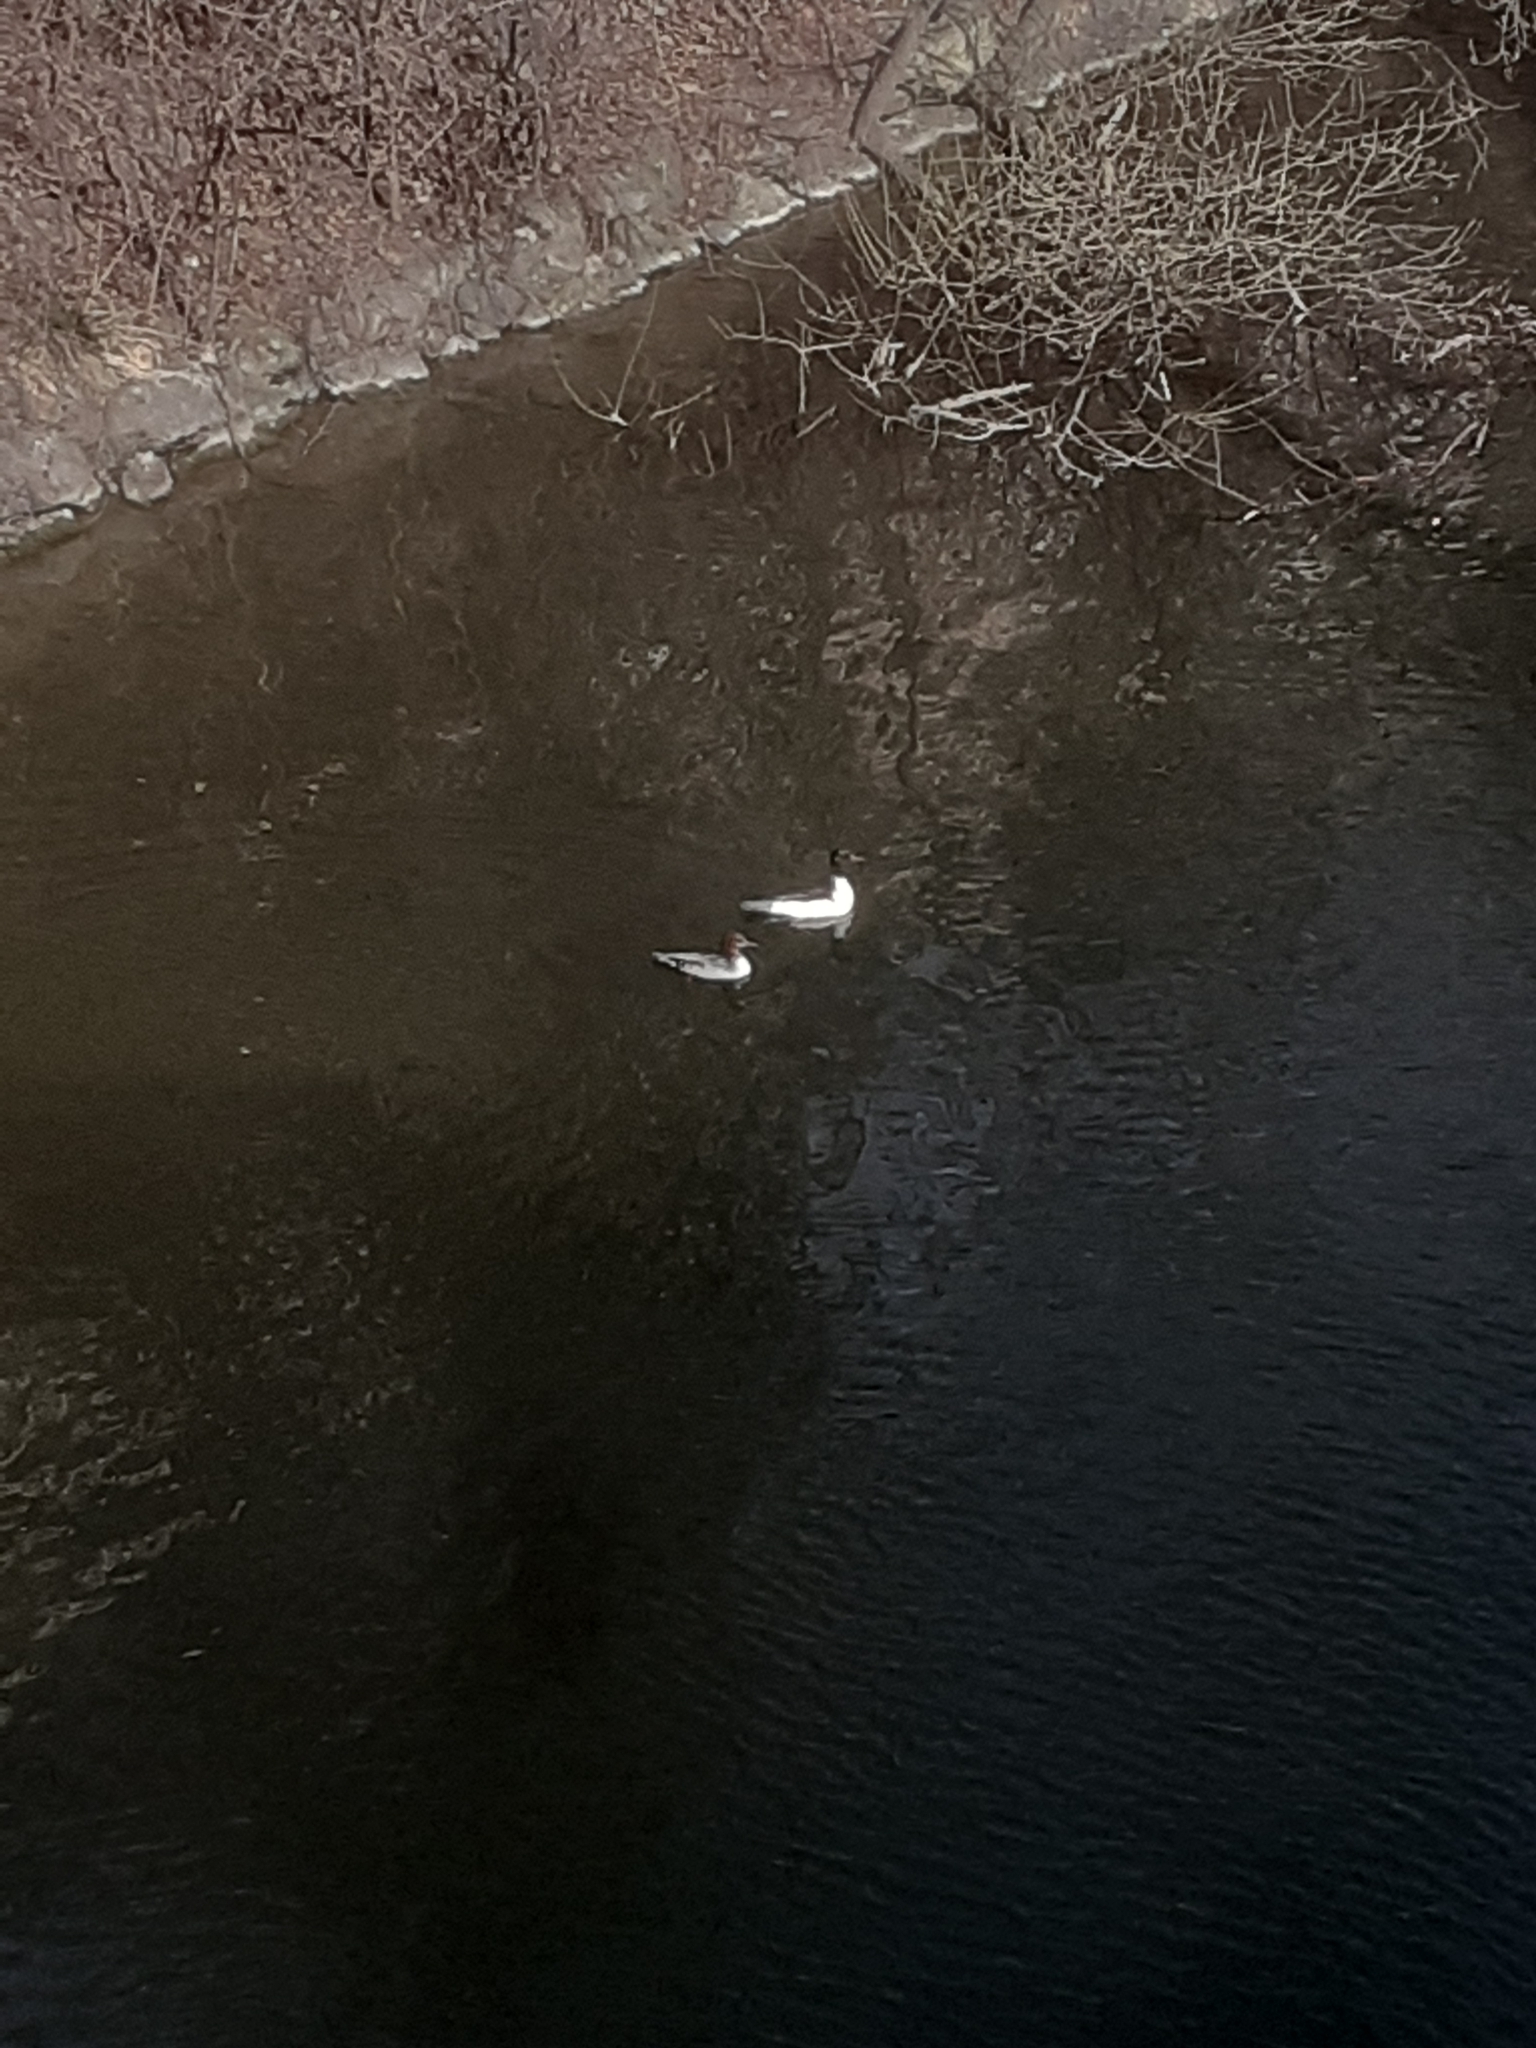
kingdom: Animalia
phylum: Chordata
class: Aves
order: Anseriformes
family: Anatidae
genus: Mergus
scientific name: Mergus merganser
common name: Common merganser
